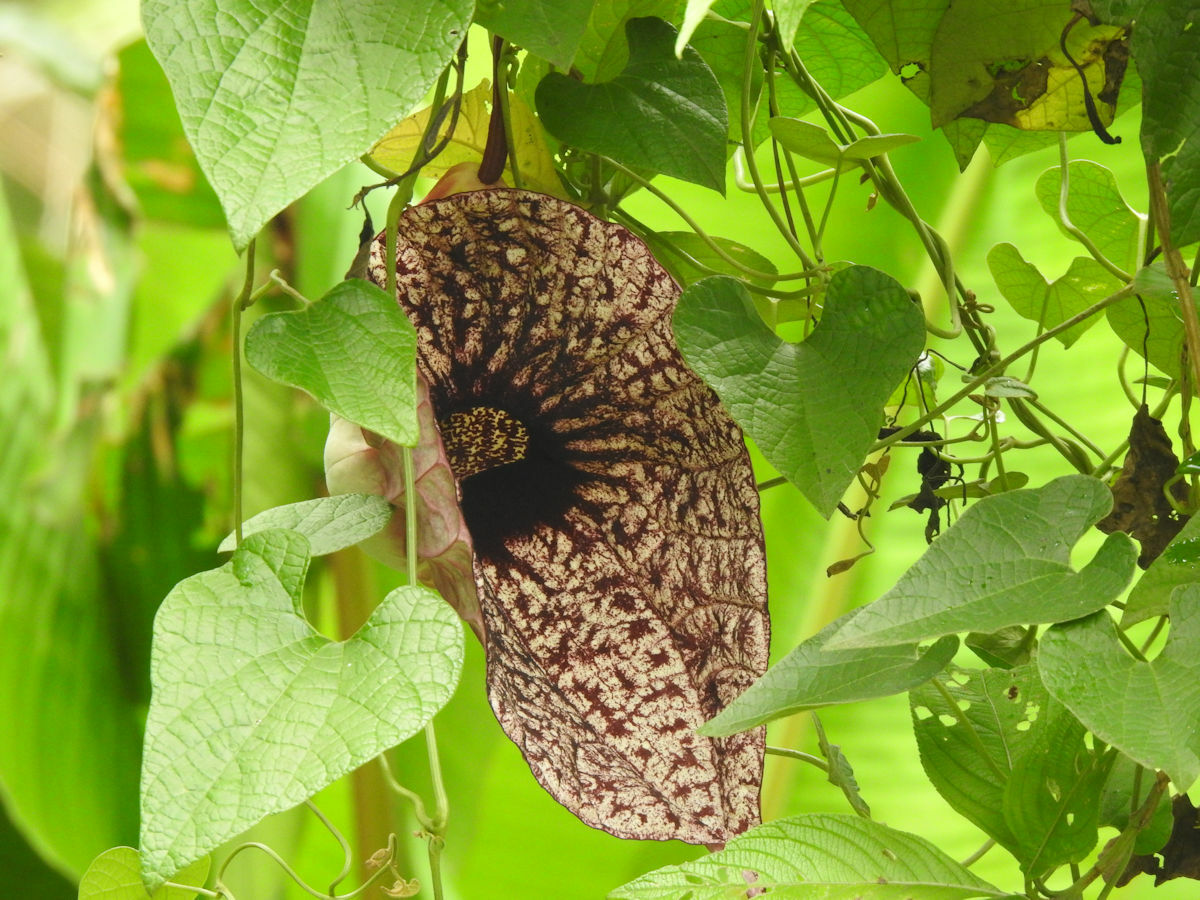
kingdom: Plantae
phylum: Tracheophyta
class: Magnoliopsida
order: Piperales
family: Aristolochiaceae
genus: Aristolochia
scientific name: Aristolochia grandiflora
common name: Pelicanflower
